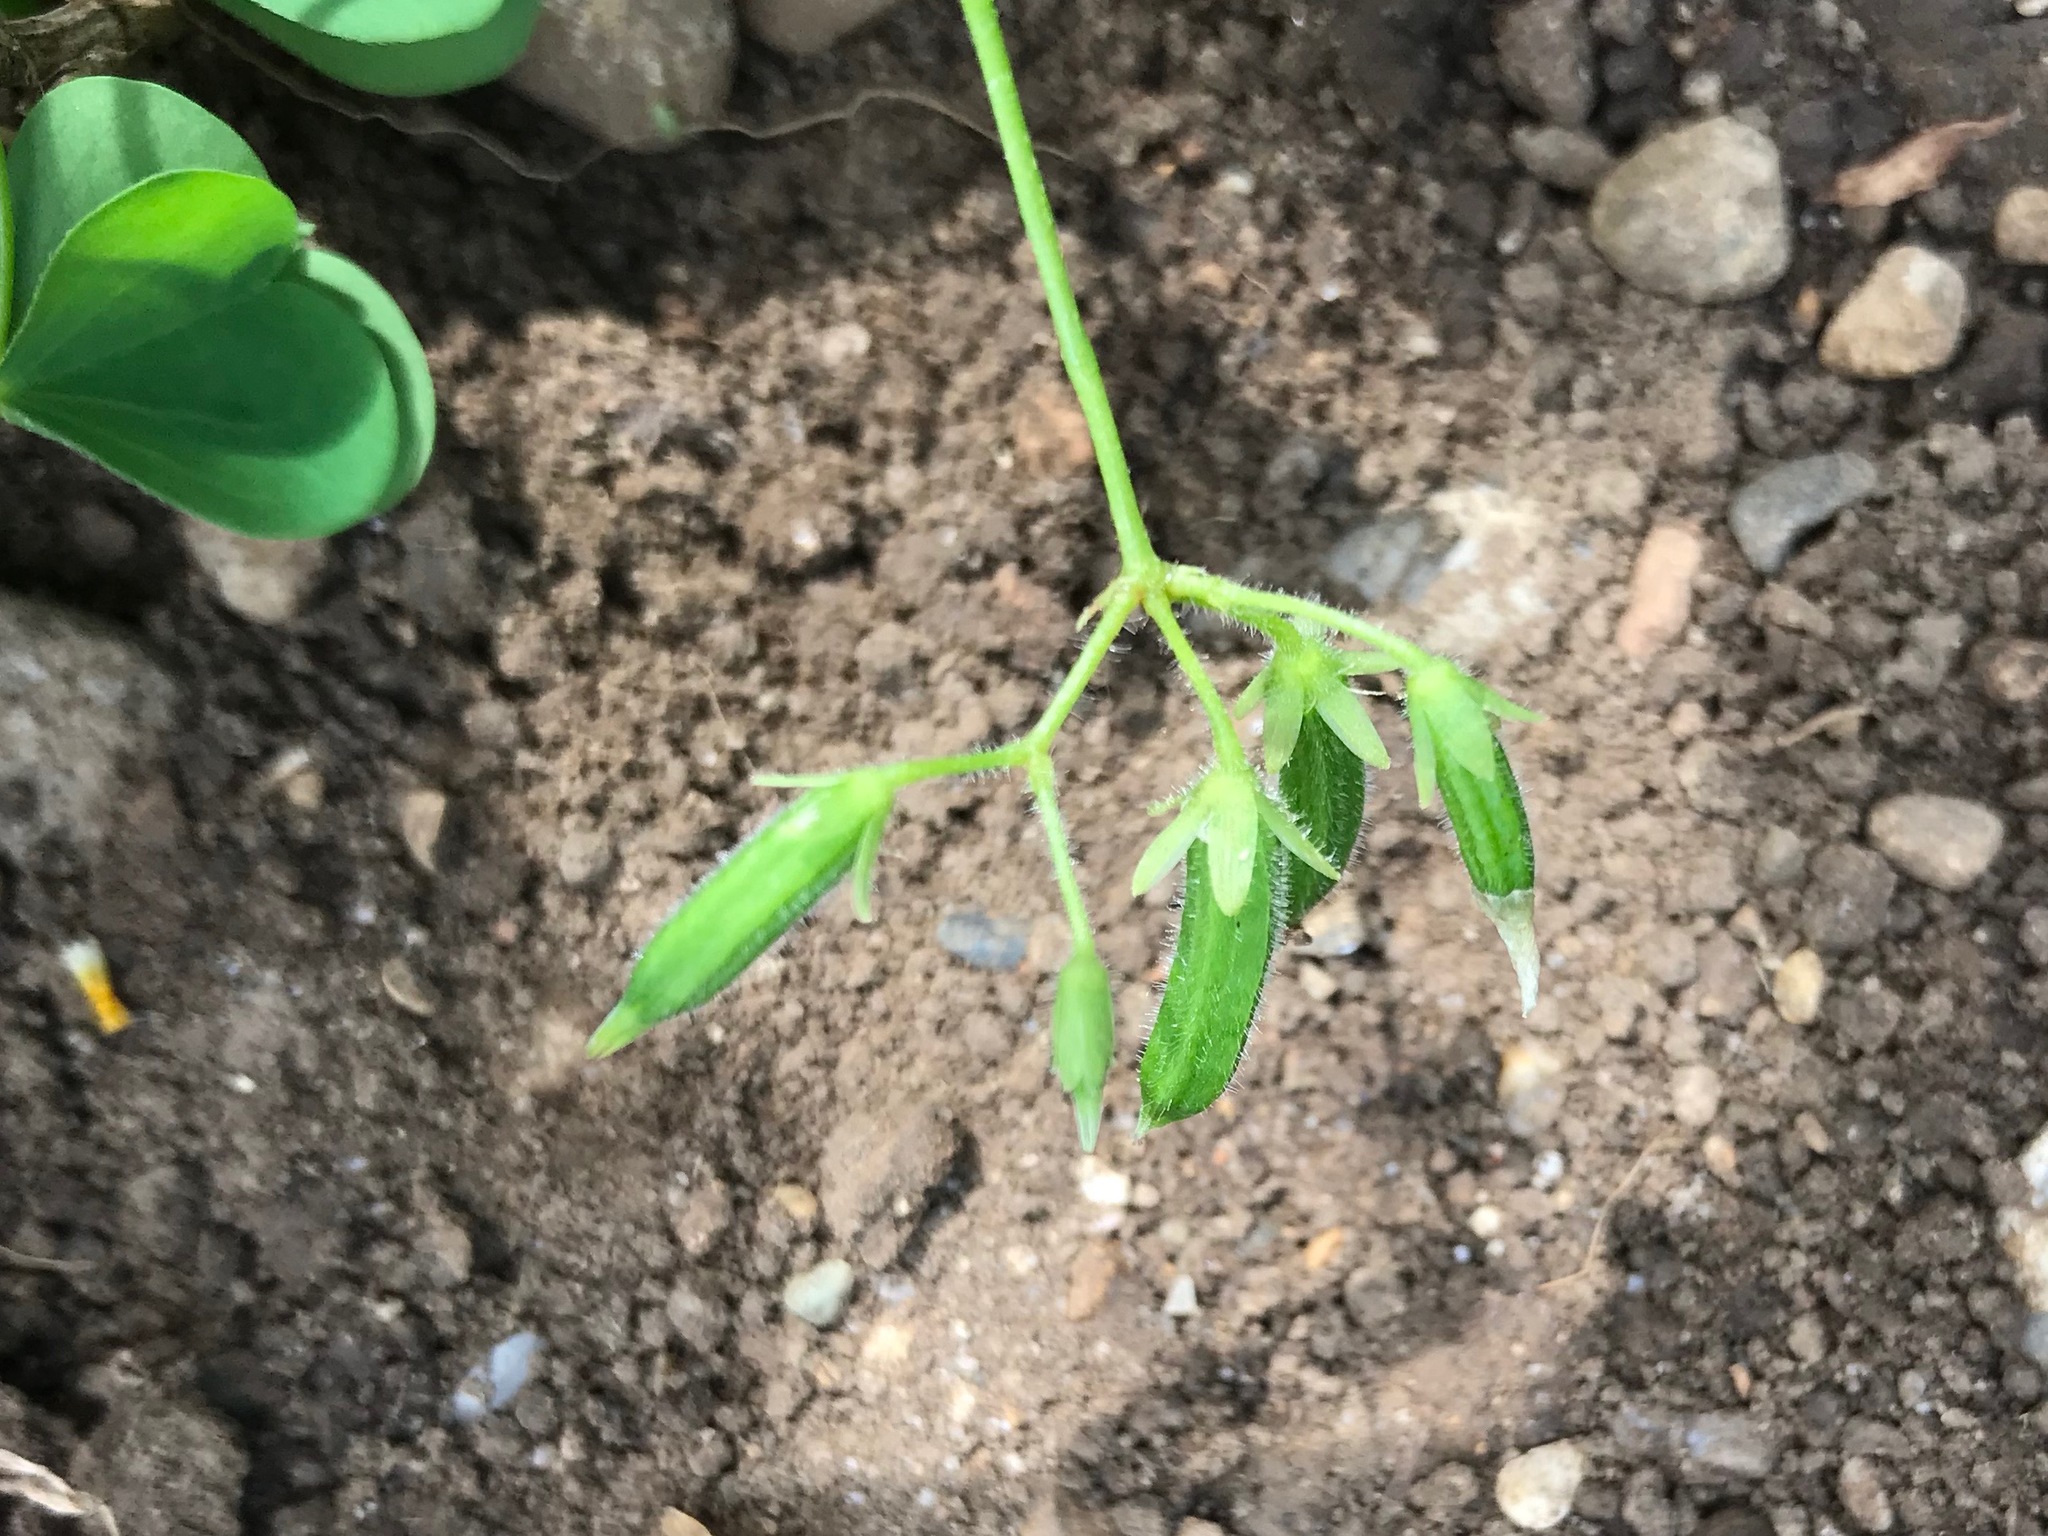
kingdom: Plantae
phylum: Tracheophyta
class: Magnoliopsida
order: Oxalidales
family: Oxalidaceae
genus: Oxalis
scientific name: Oxalis stricta
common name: Upright yellow-sorrel
